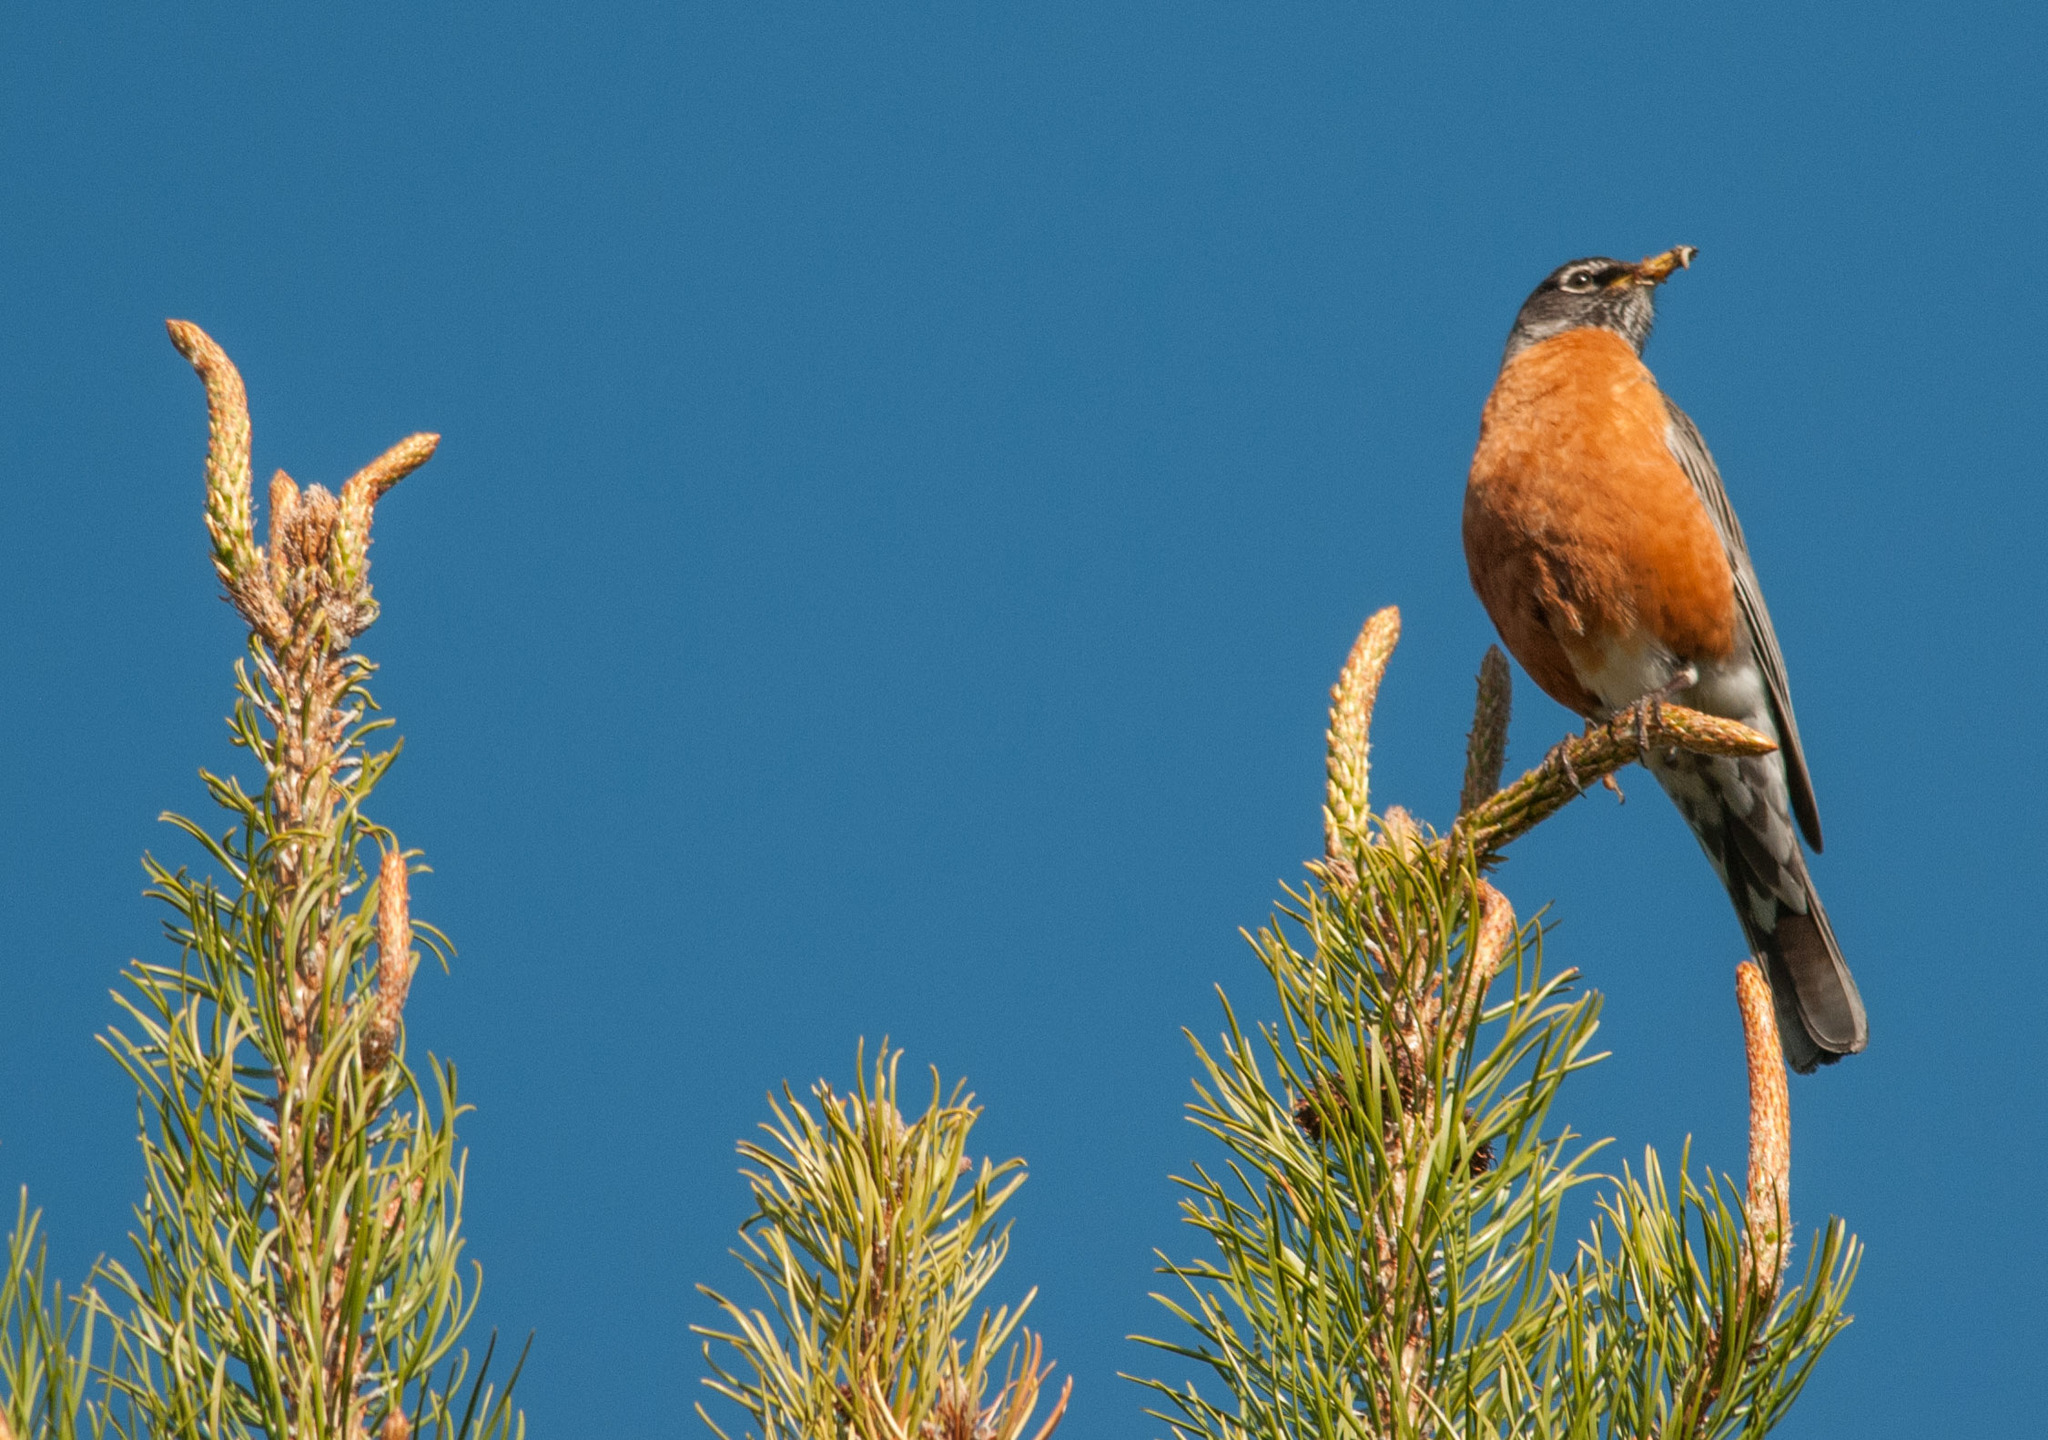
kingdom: Animalia
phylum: Chordata
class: Aves
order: Passeriformes
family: Turdidae
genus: Turdus
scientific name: Turdus migratorius
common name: American robin
